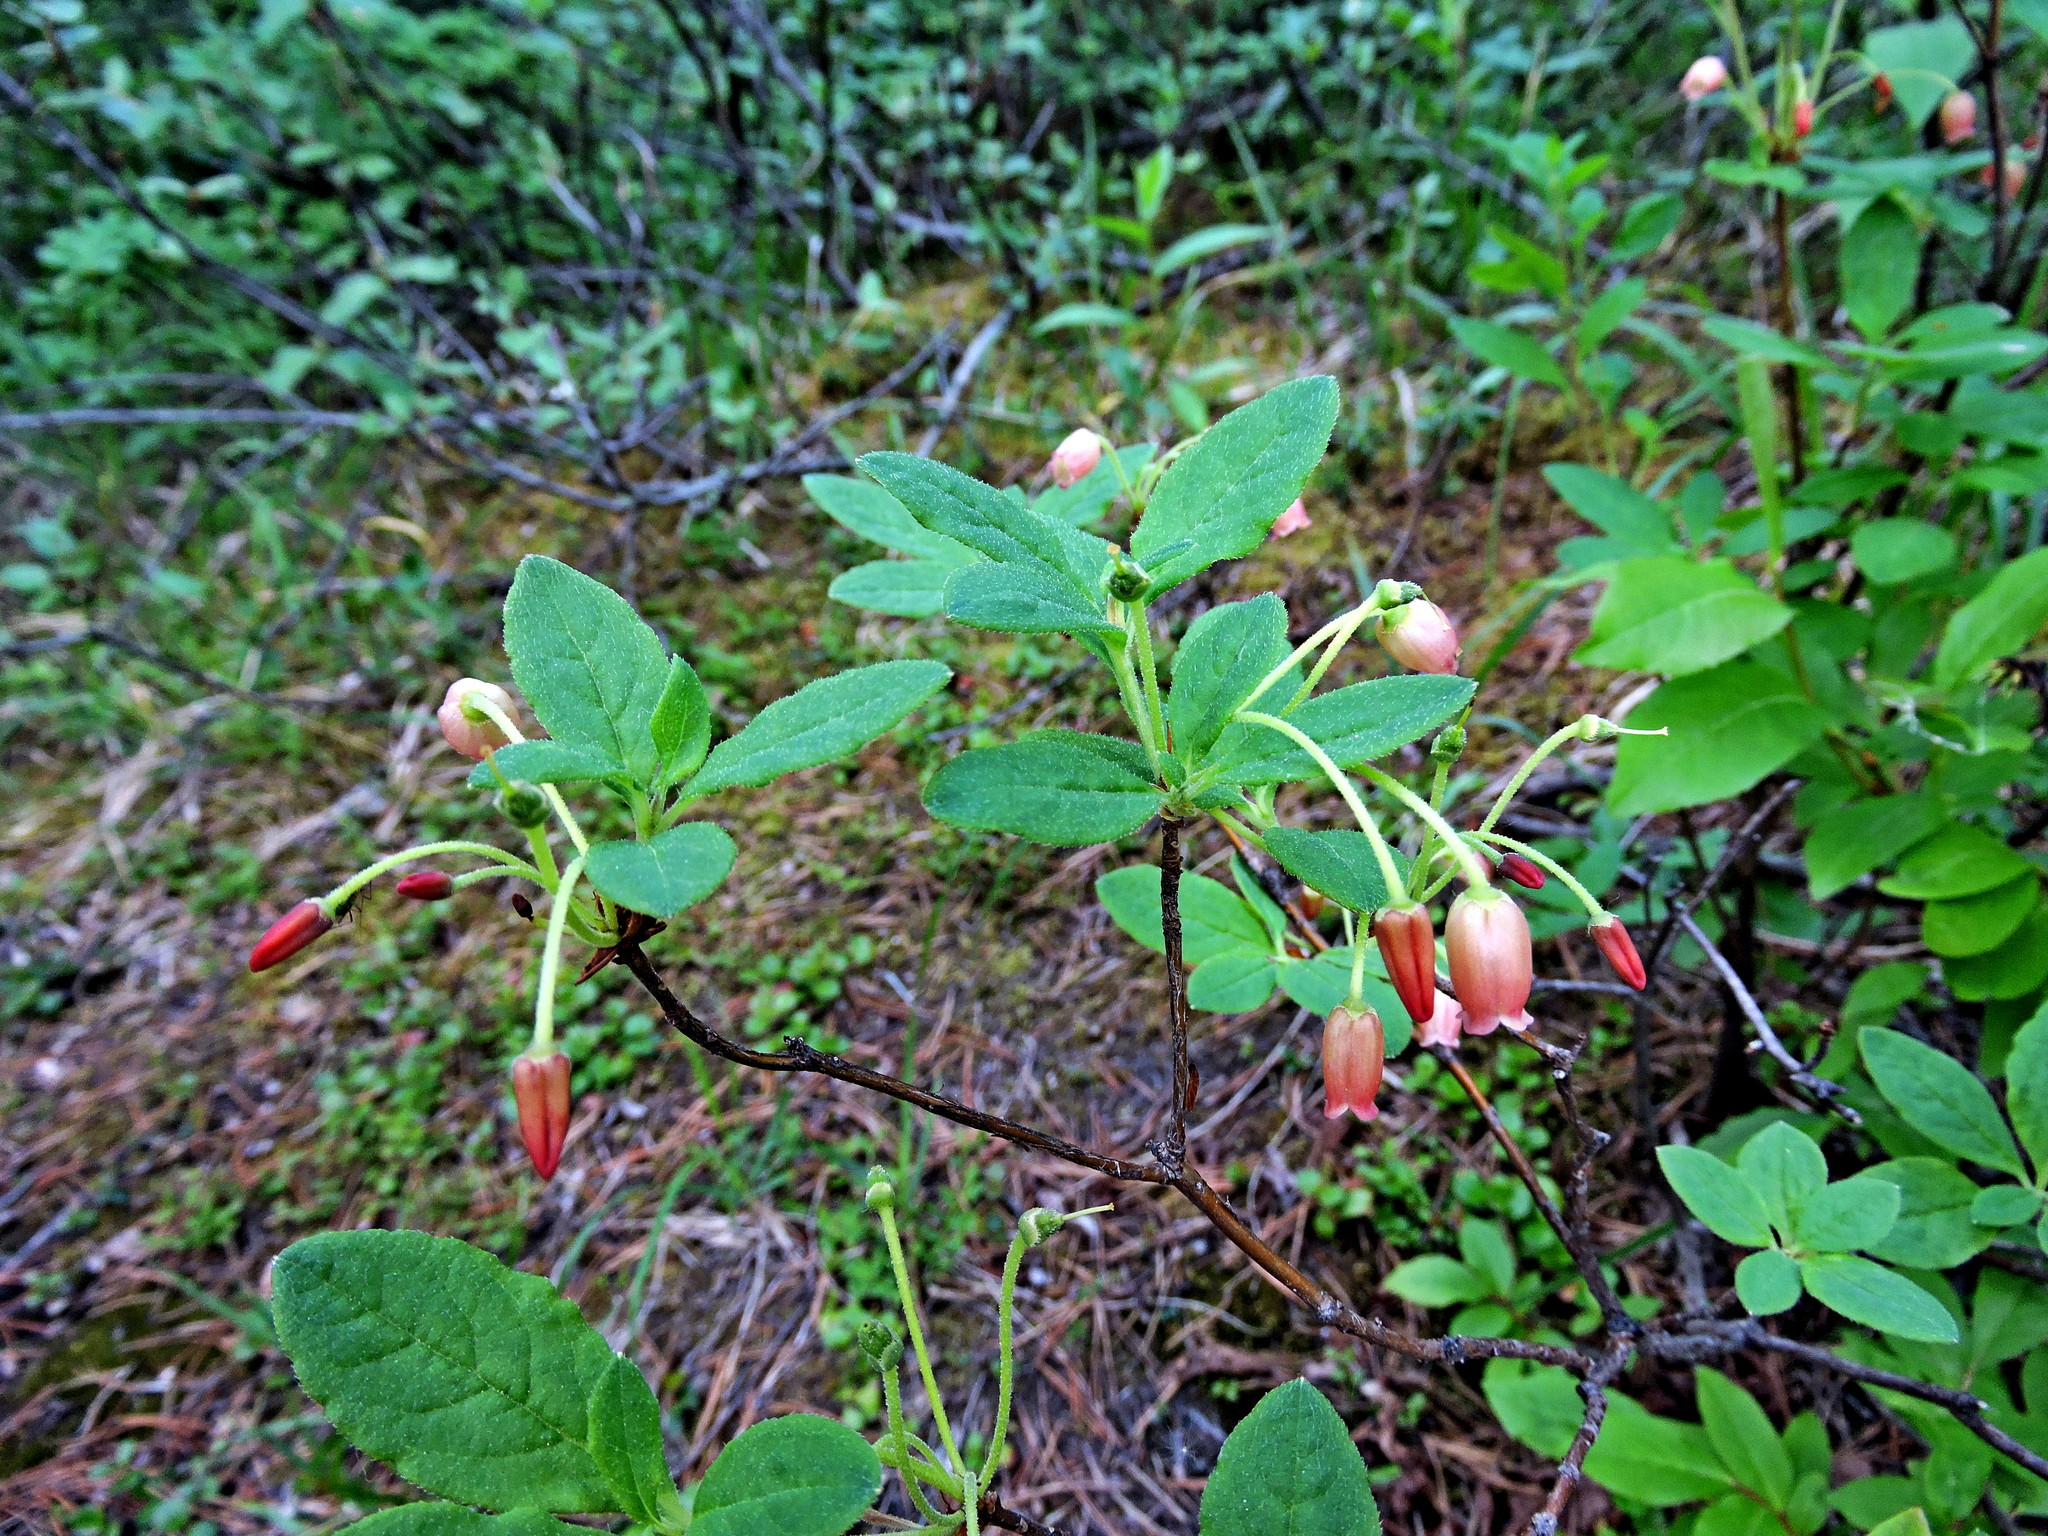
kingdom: Plantae
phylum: Tracheophyta
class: Magnoliopsida
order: Ericales
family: Ericaceae
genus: Rhododendron
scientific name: Rhododendron menziesii
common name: Pacific menziesia
